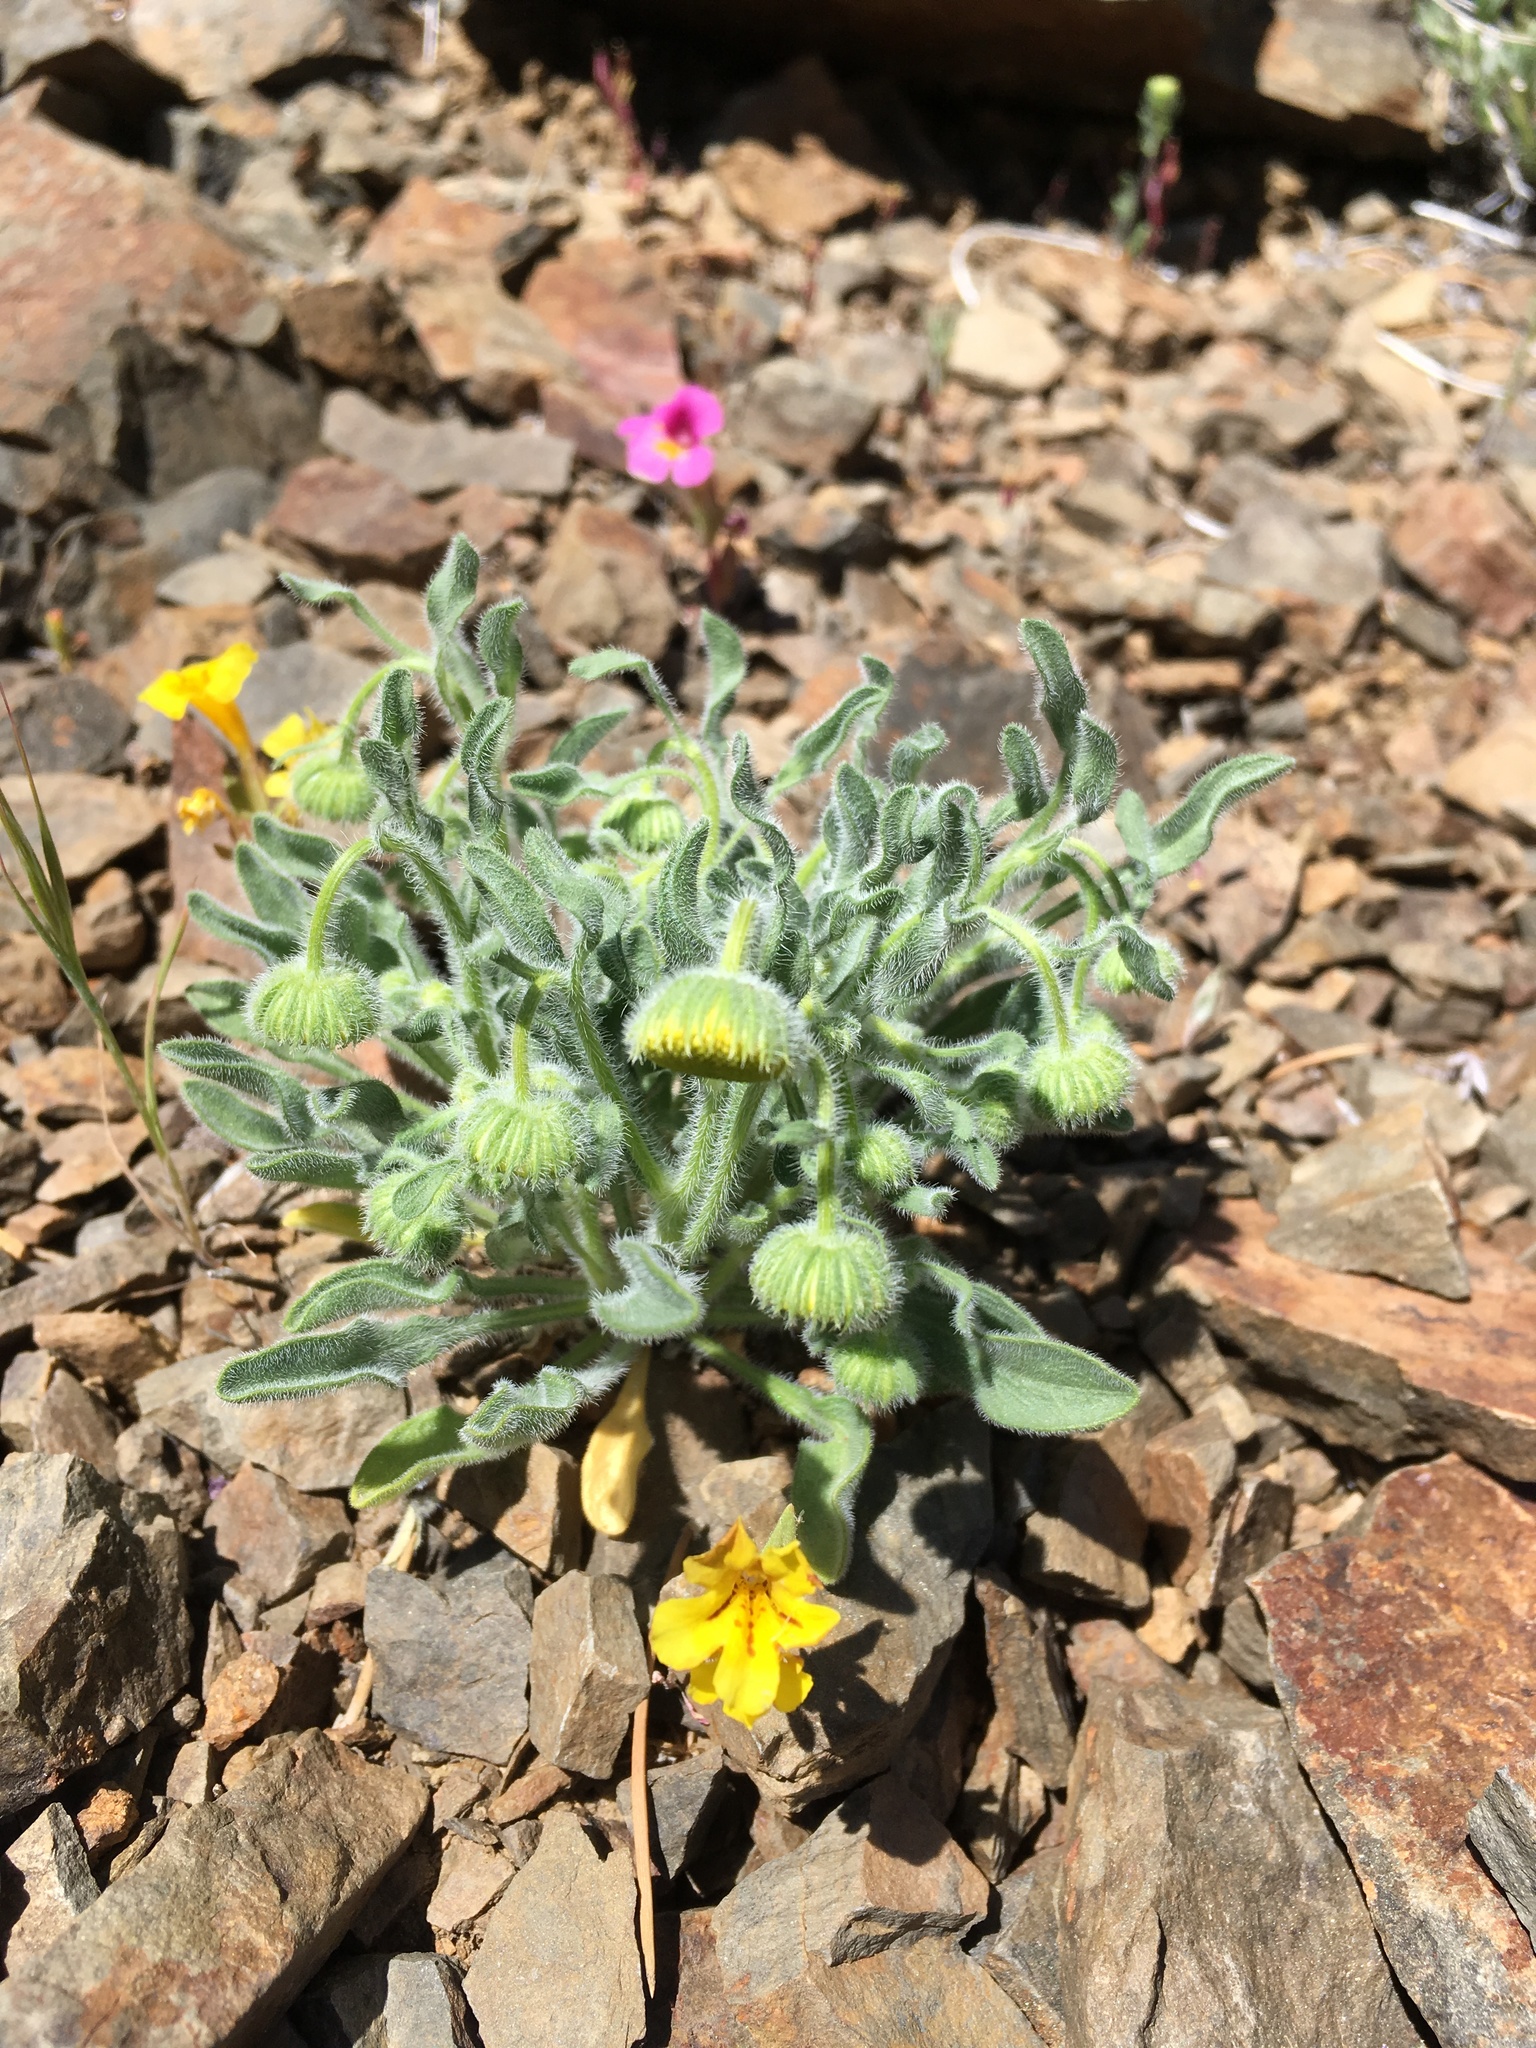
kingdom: Plantae
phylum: Tracheophyta
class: Magnoliopsida
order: Asterales
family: Asteraceae
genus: Erigeron
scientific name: Erigeron aphanactis
